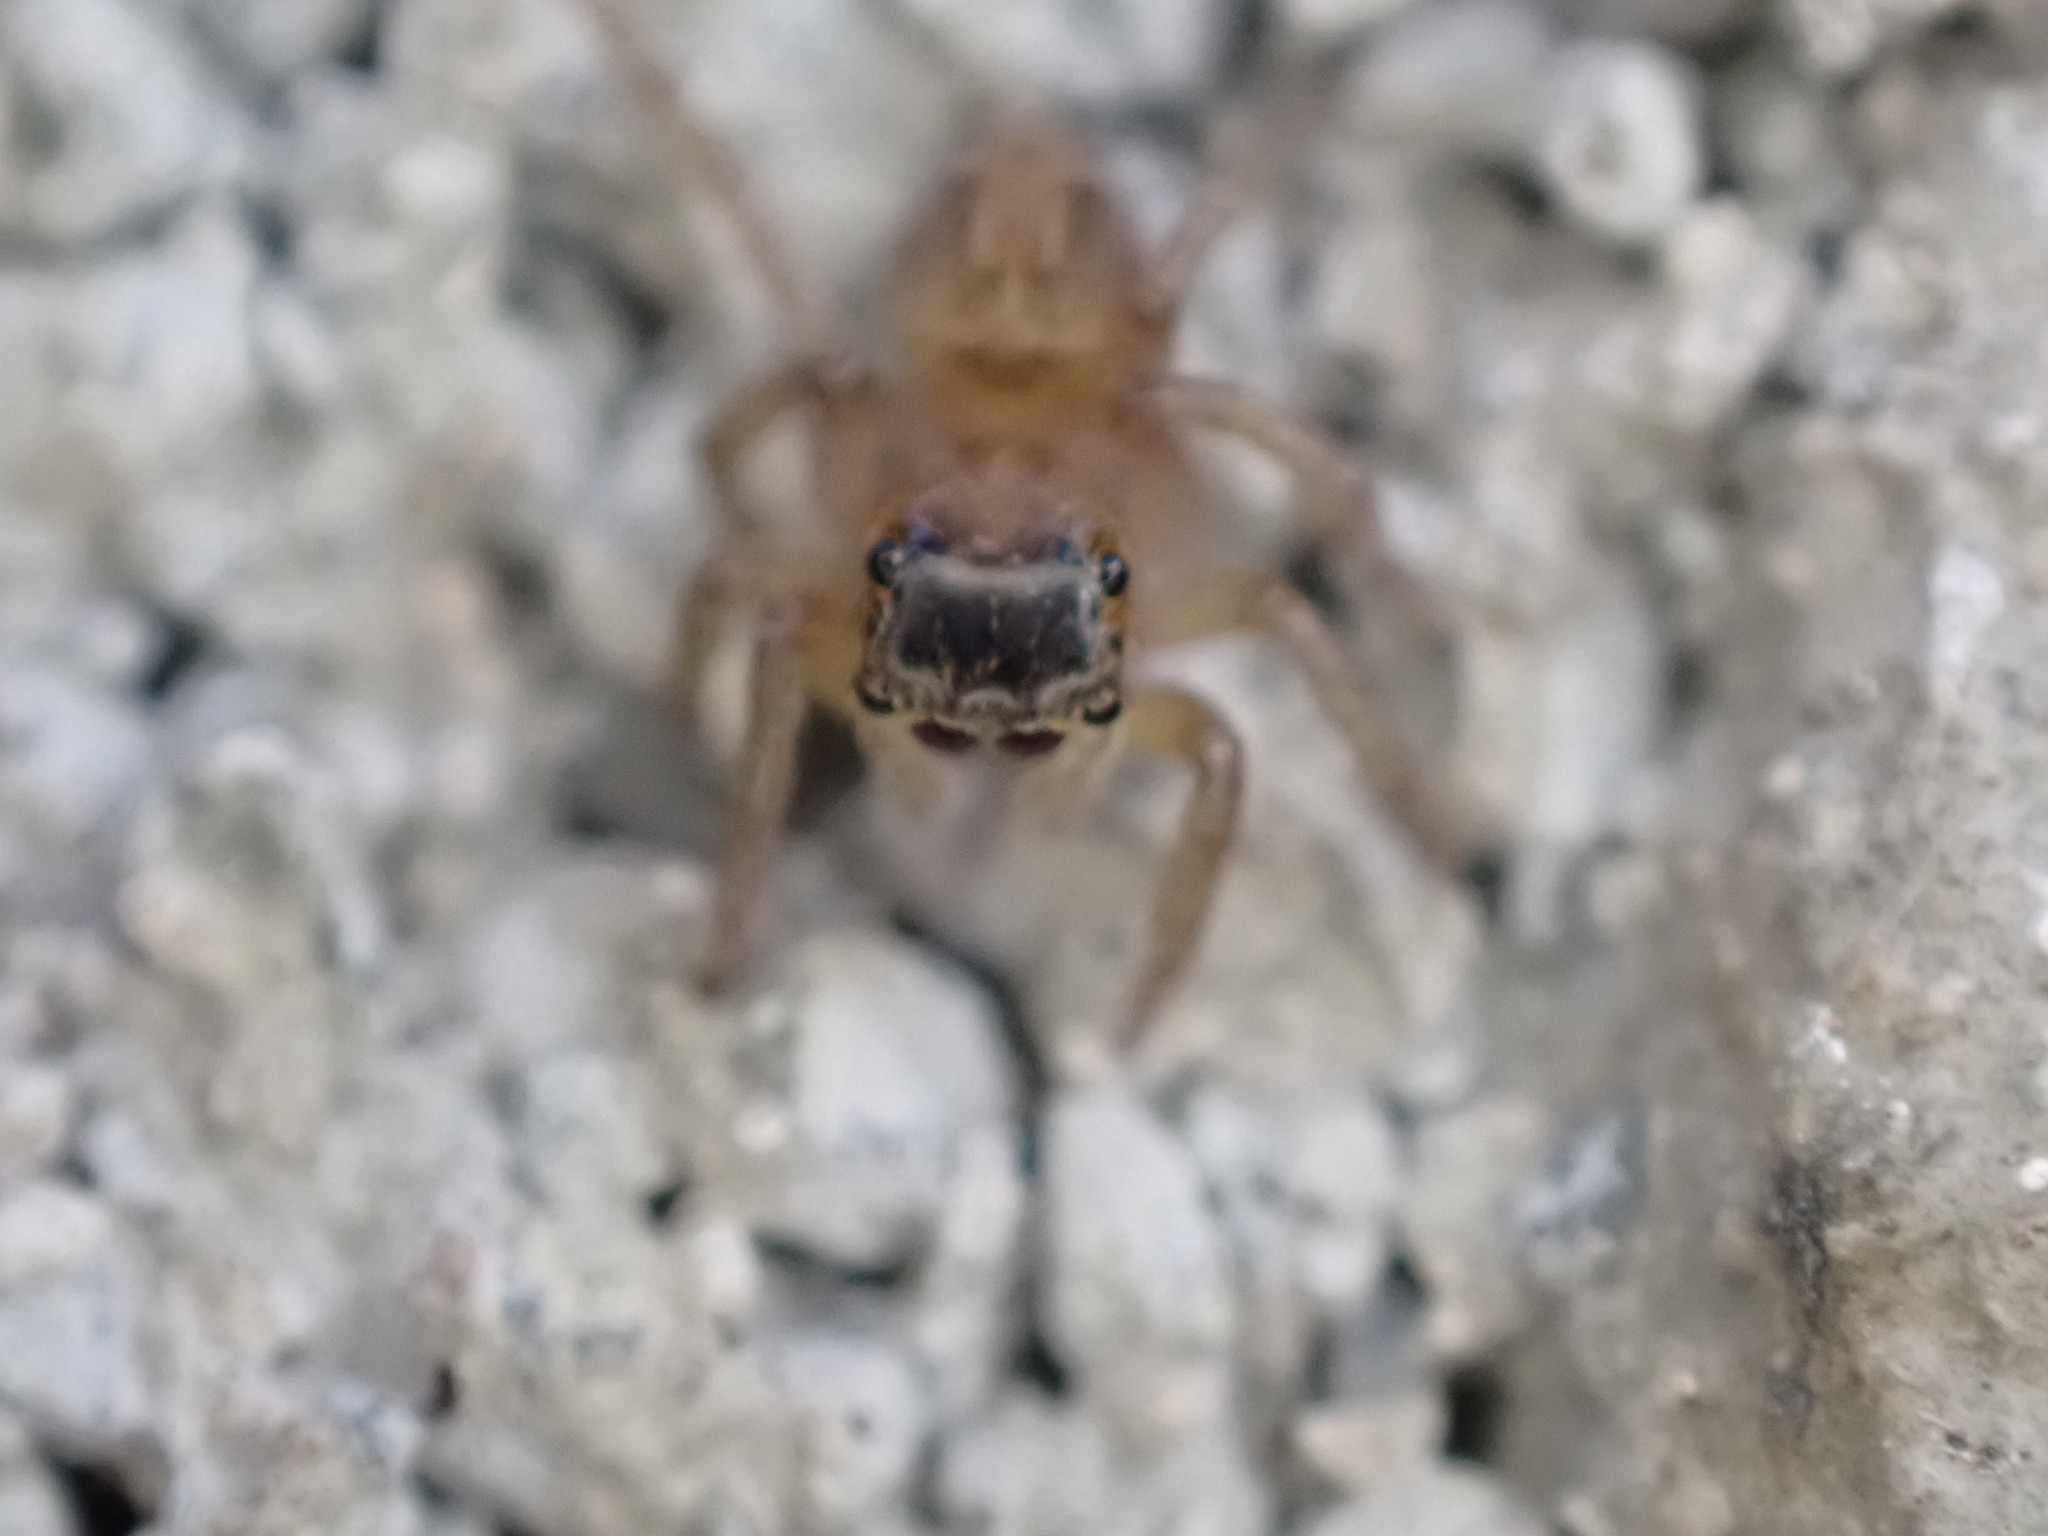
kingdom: Animalia
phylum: Arthropoda
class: Arachnida
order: Araneae
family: Salticidae
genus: Hasarius
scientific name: Hasarius adansoni
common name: Jumping spider
